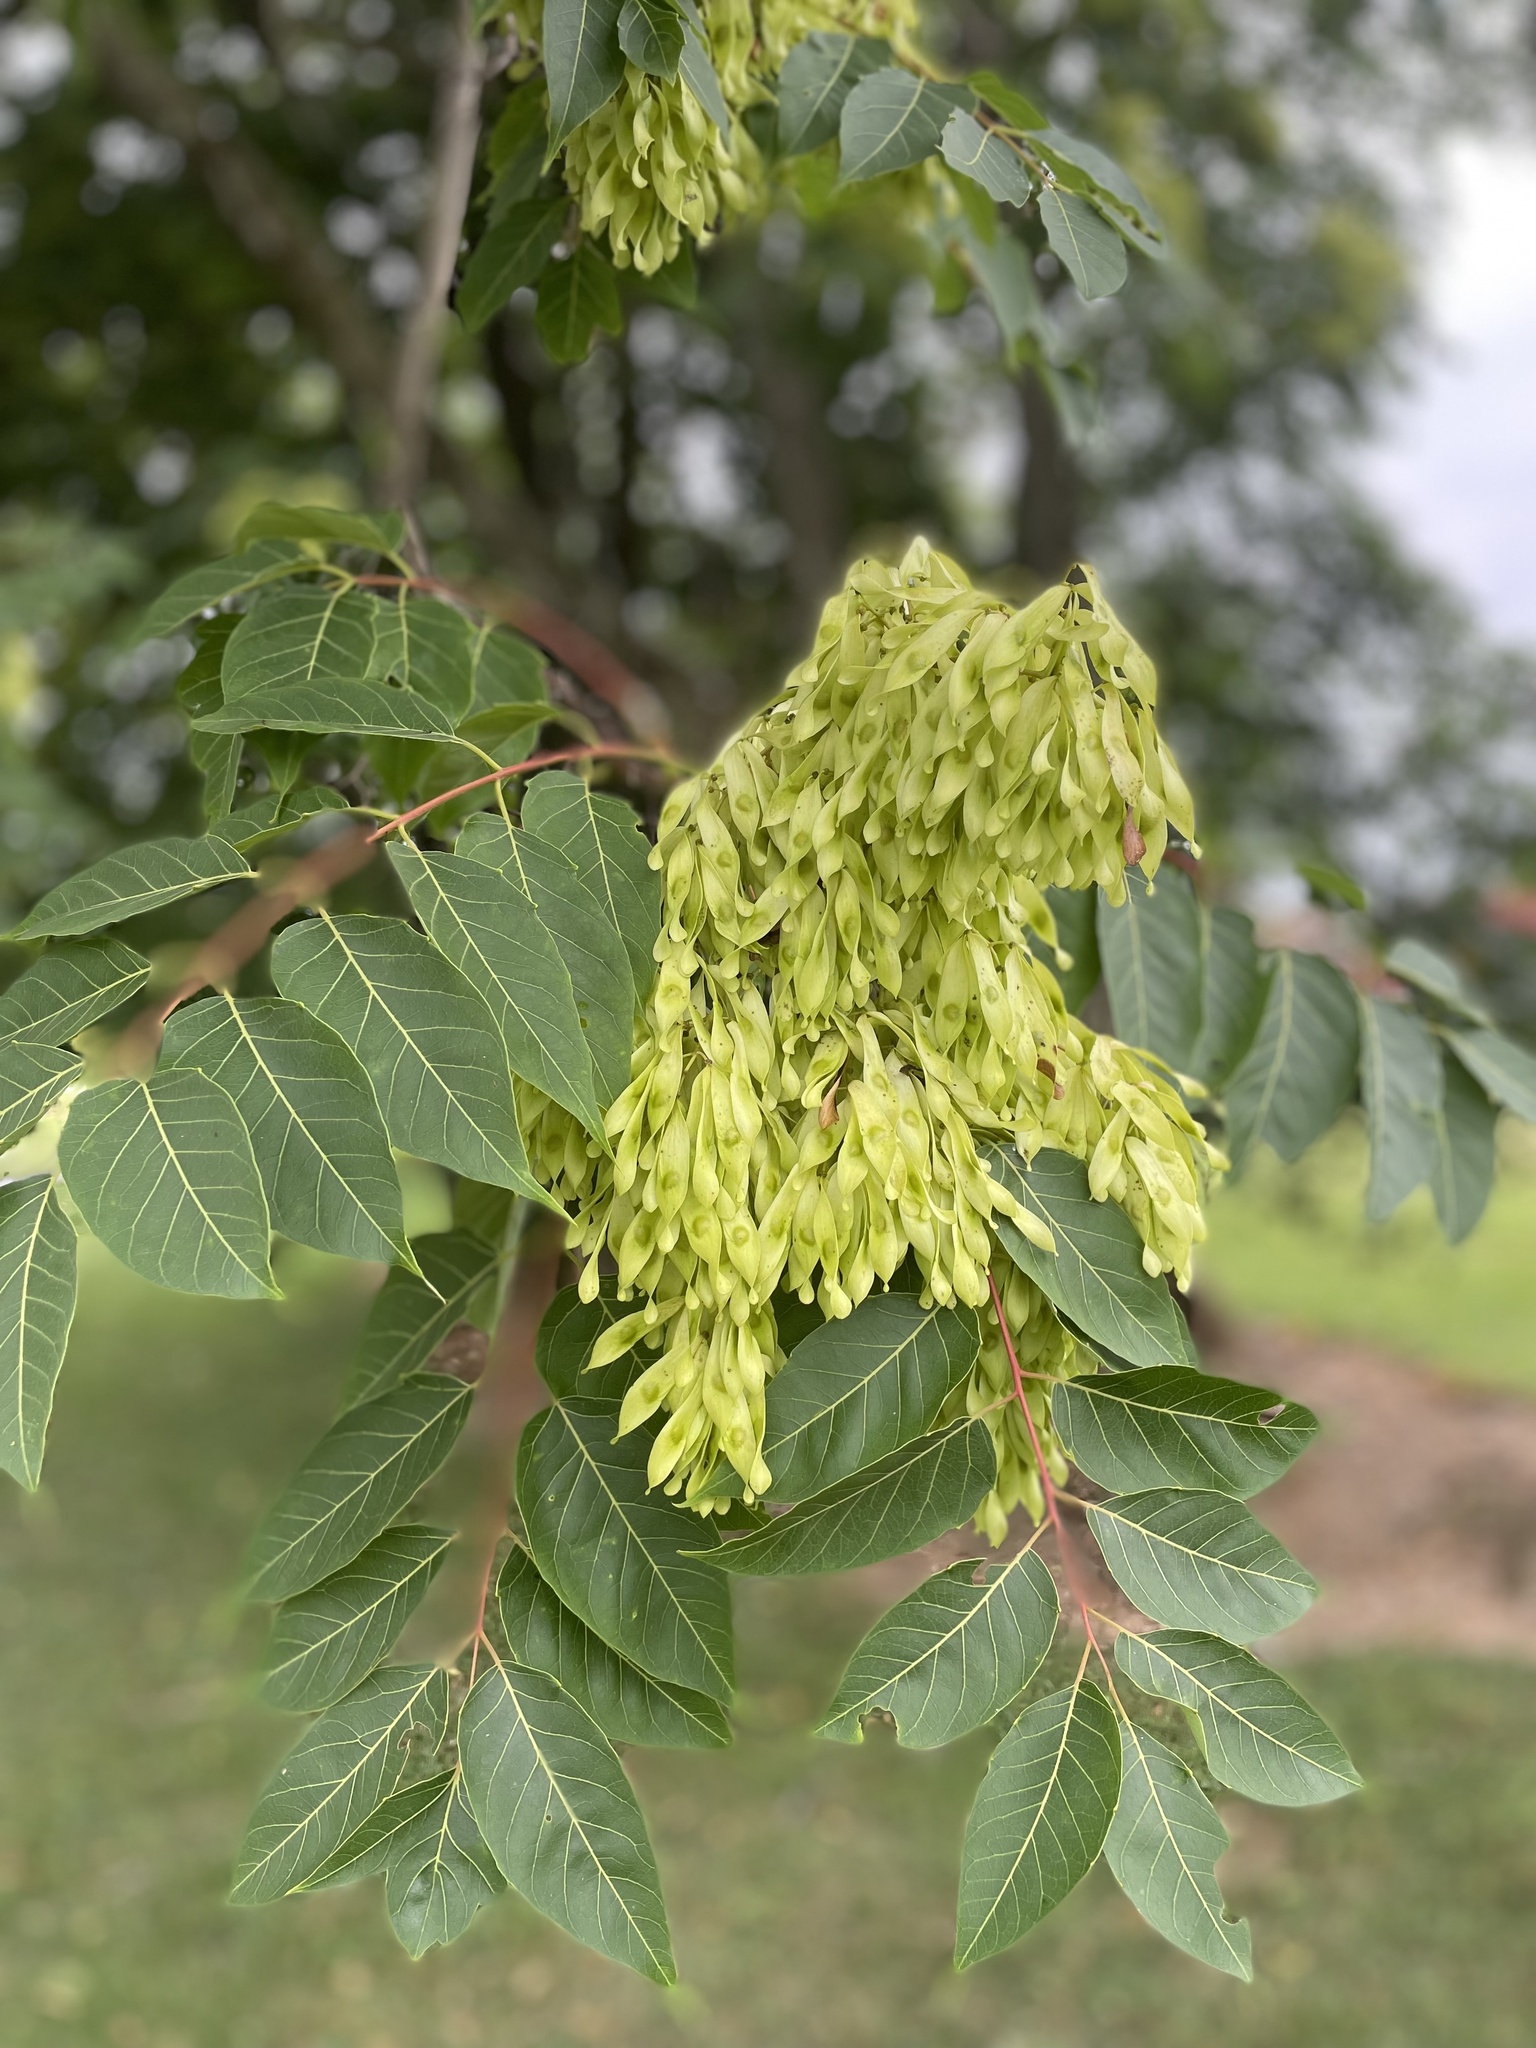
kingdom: Plantae
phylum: Tracheophyta
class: Magnoliopsida
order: Sapindales
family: Simaroubaceae
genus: Ailanthus
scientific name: Ailanthus altissima
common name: Tree-of-heaven
